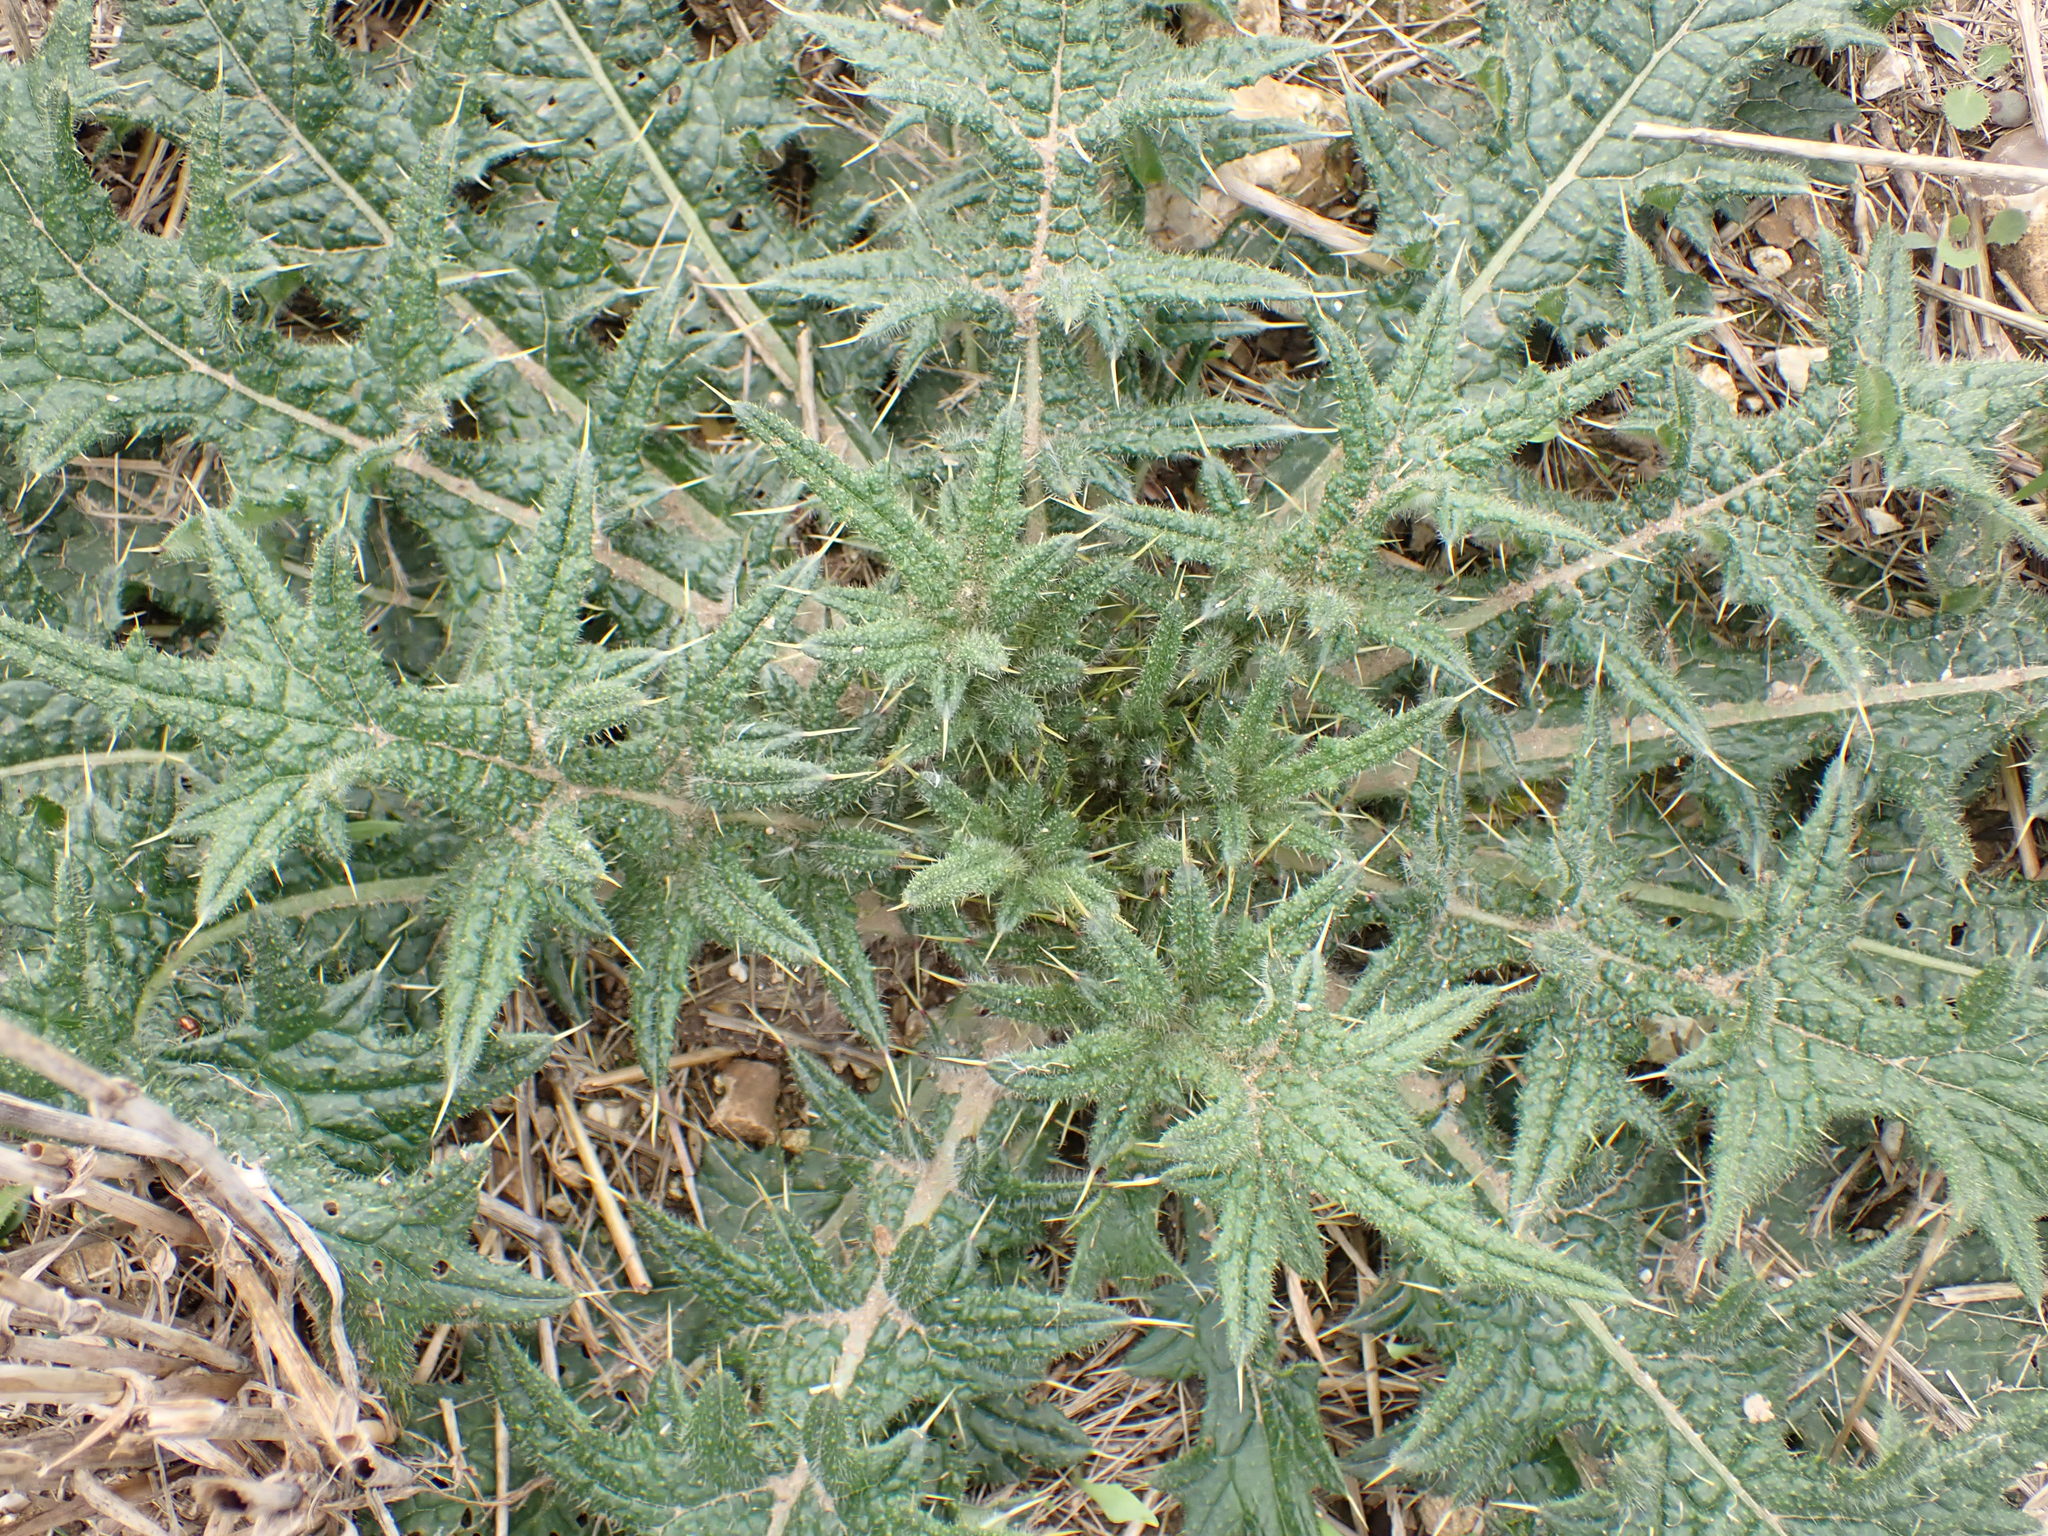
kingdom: Plantae
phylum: Tracheophyta
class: Magnoliopsida
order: Asterales
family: Asteraceae
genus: Cirsium
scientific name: Cirsium vulgare
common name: Bull thistle
